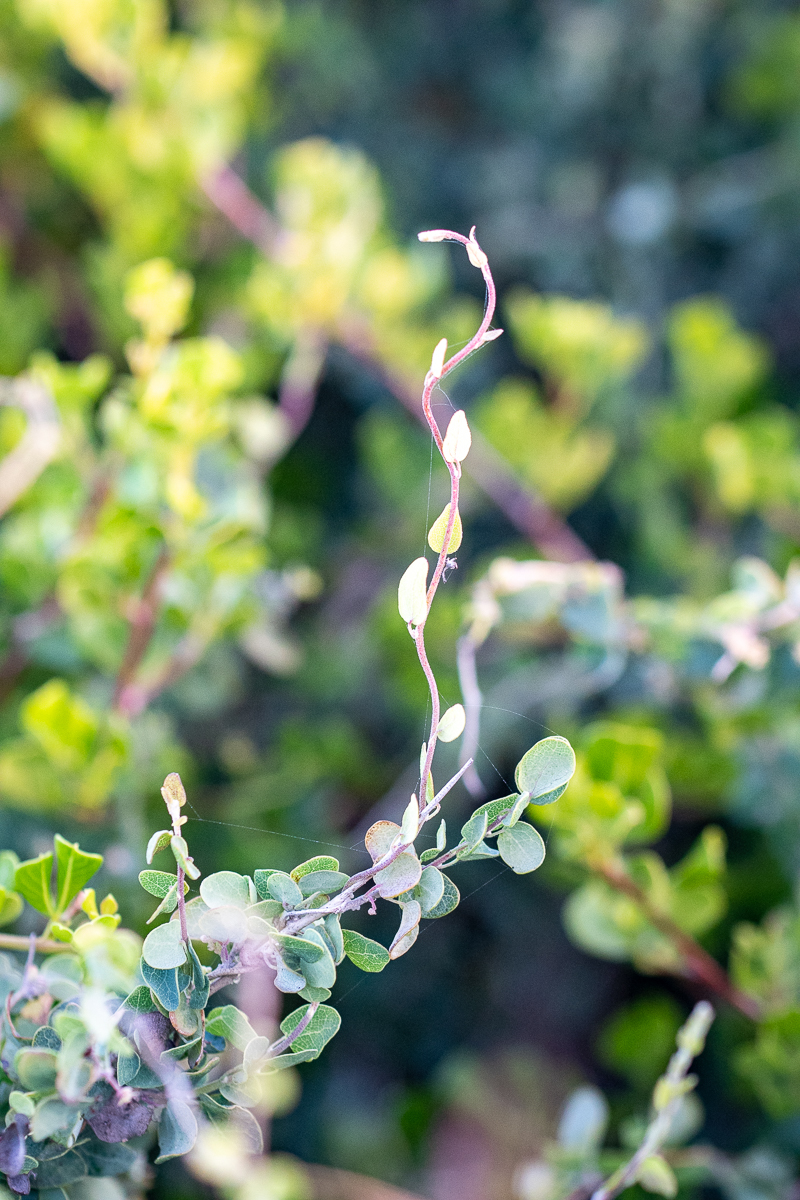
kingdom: Plantae
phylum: Tracheophyta
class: Magnoliopsida
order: Ranunculales
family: Menispermaceae
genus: Cissampelos
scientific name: Cissampelos capensis
